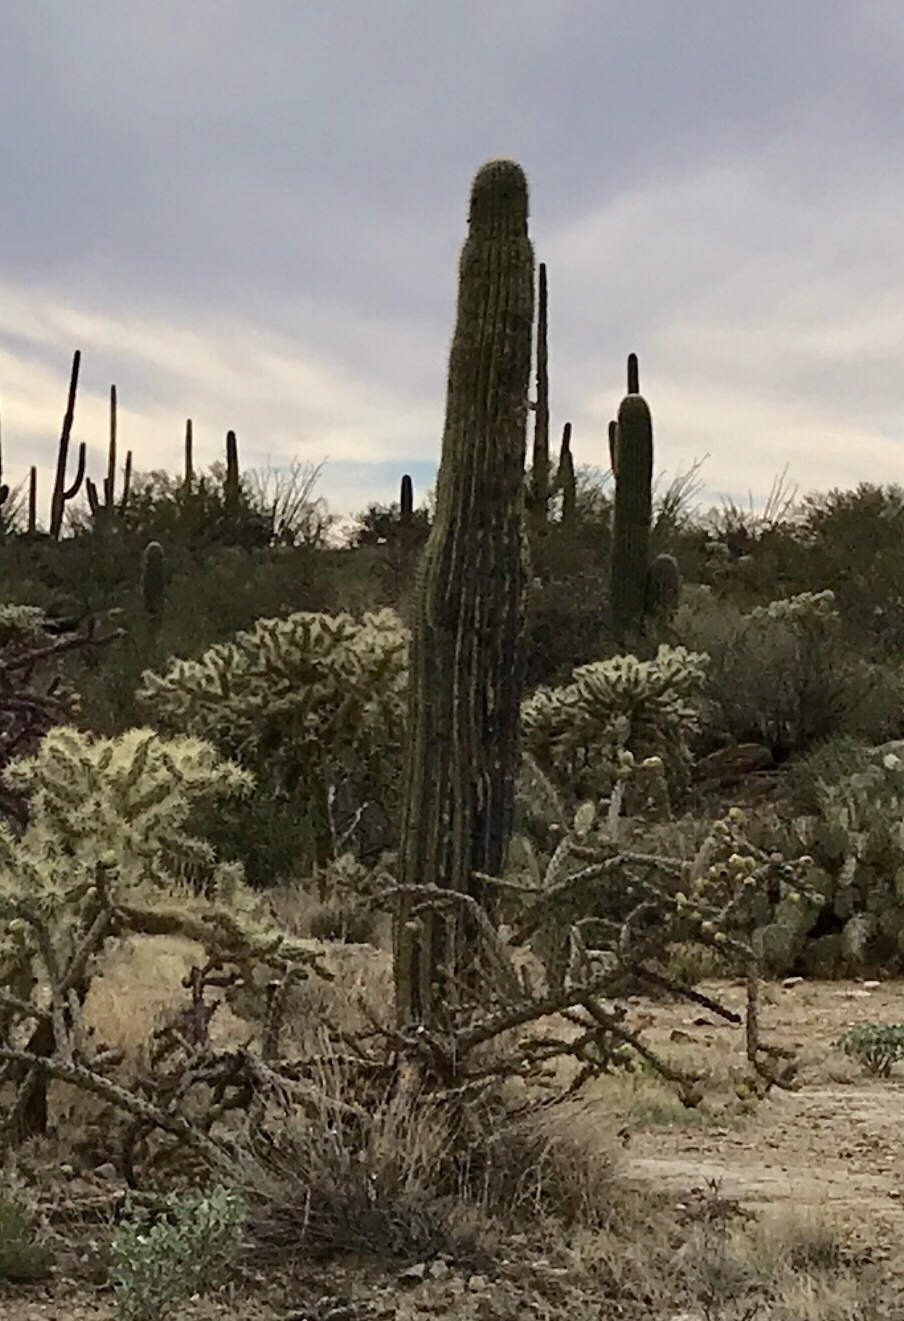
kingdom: Plantae
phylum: Tracheophyta
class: Magnoliopsida
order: Caryophyllales
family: Cactaceae
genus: Carnegiea
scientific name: Carnegiea gigantea
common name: Saguaro
